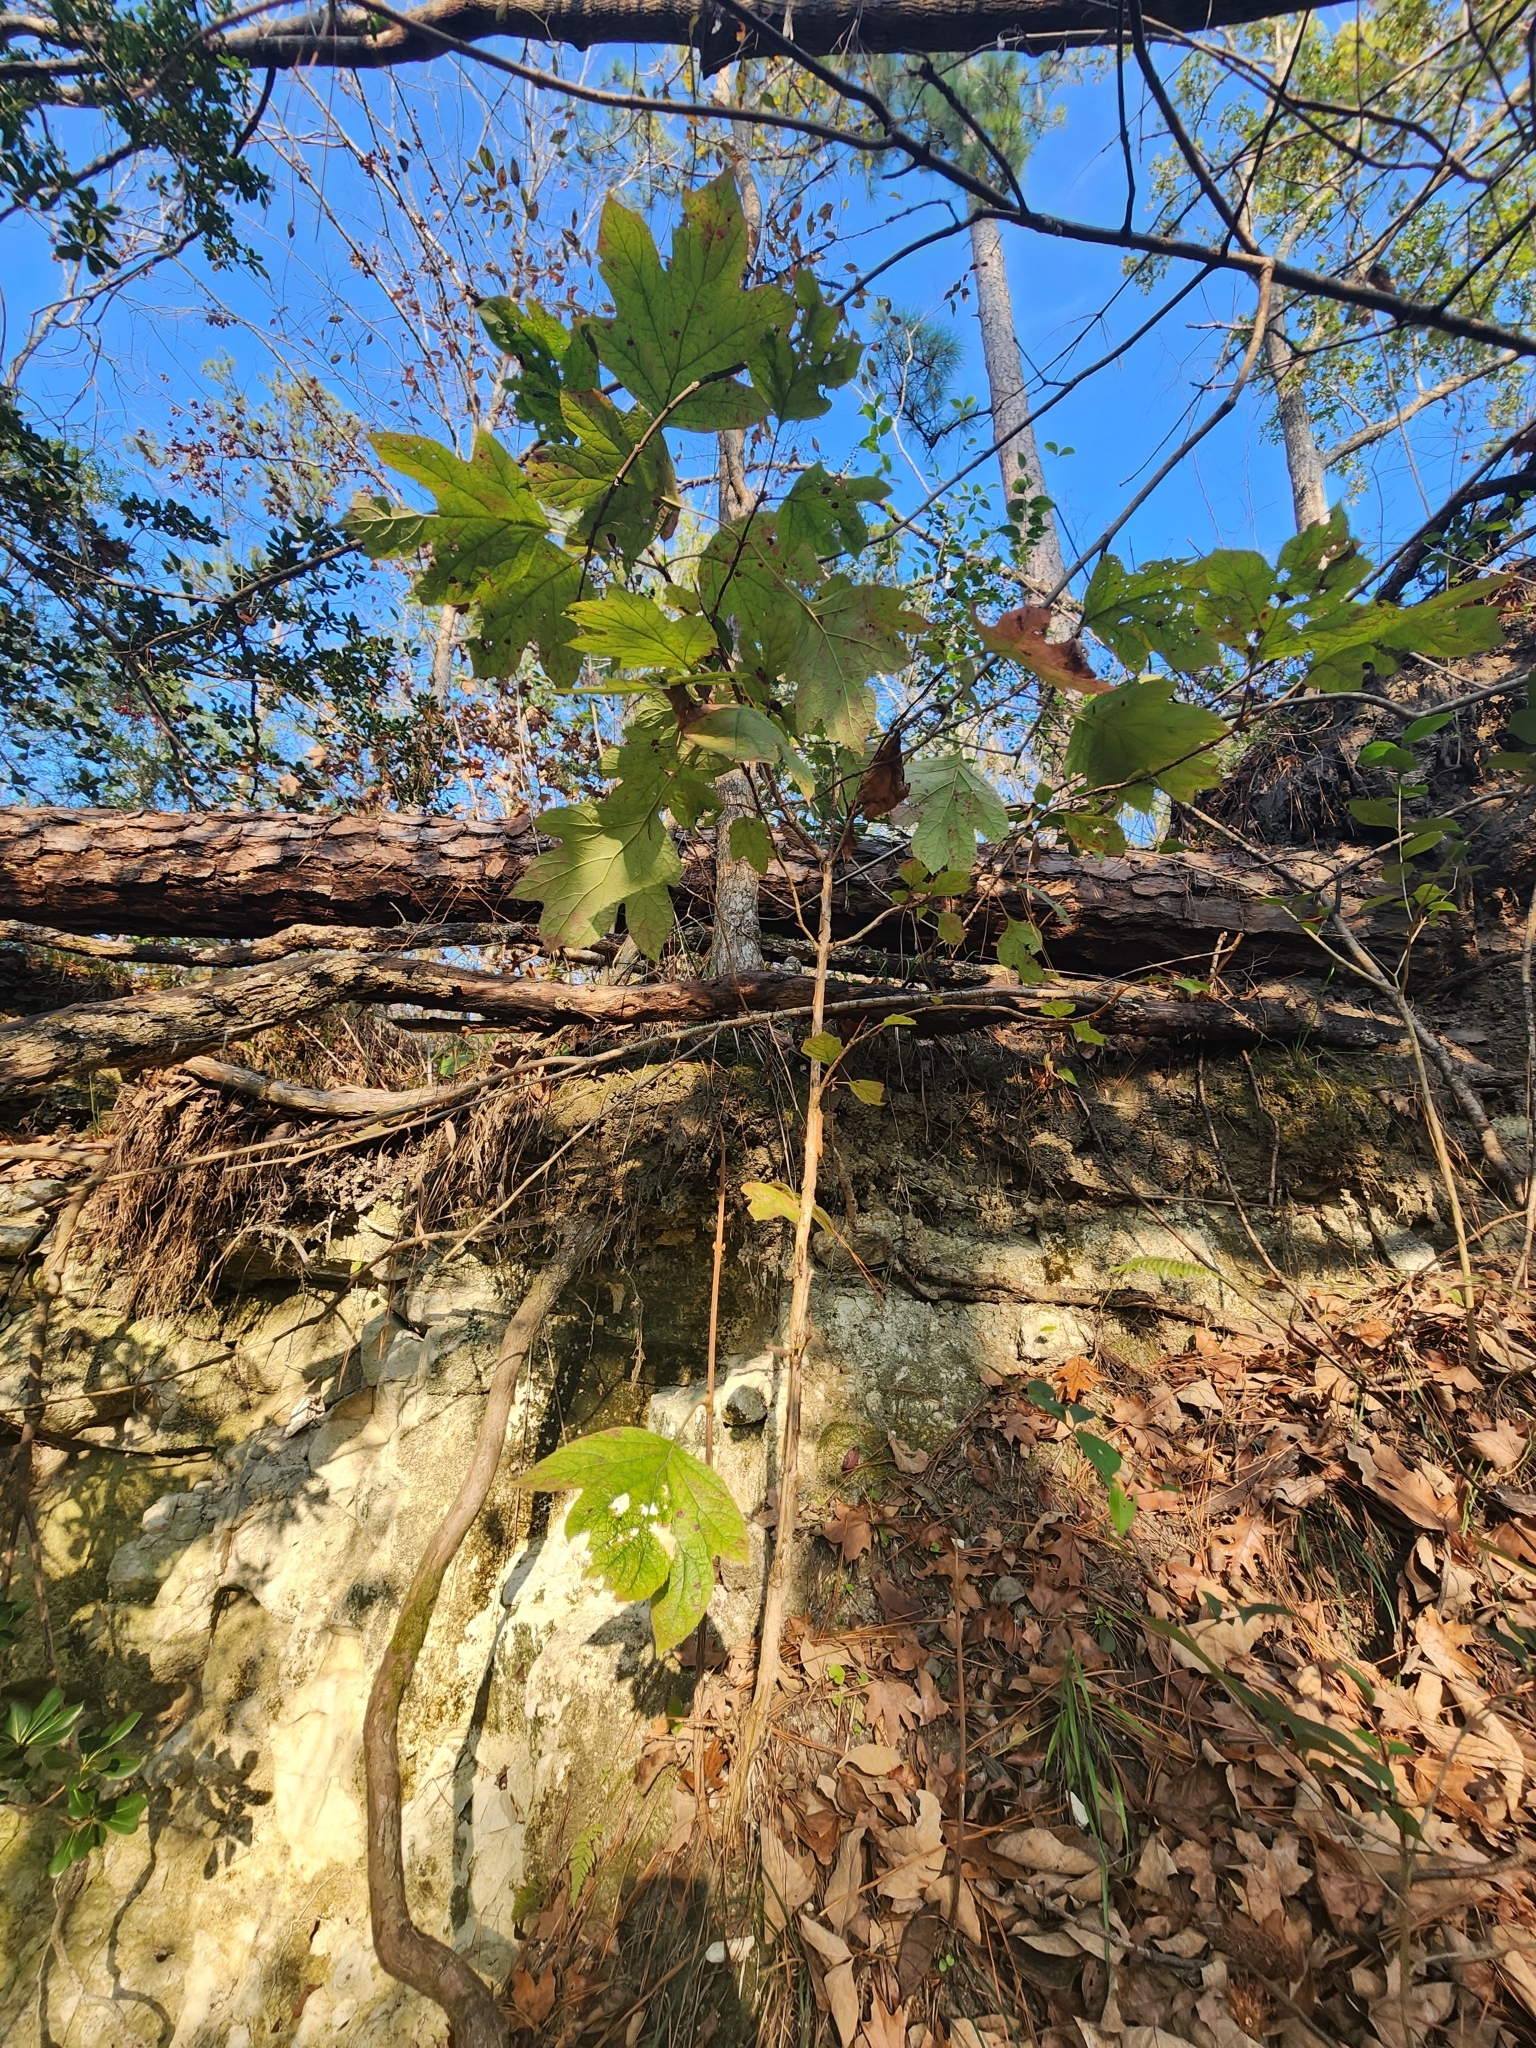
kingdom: Plantae
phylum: Tracheophyta
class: Magnoliopsida
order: Cornales
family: Hydrangeaceae
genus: Hydrangea
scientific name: Hydrangea quercifolia
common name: Oak-leaf hydrangea
